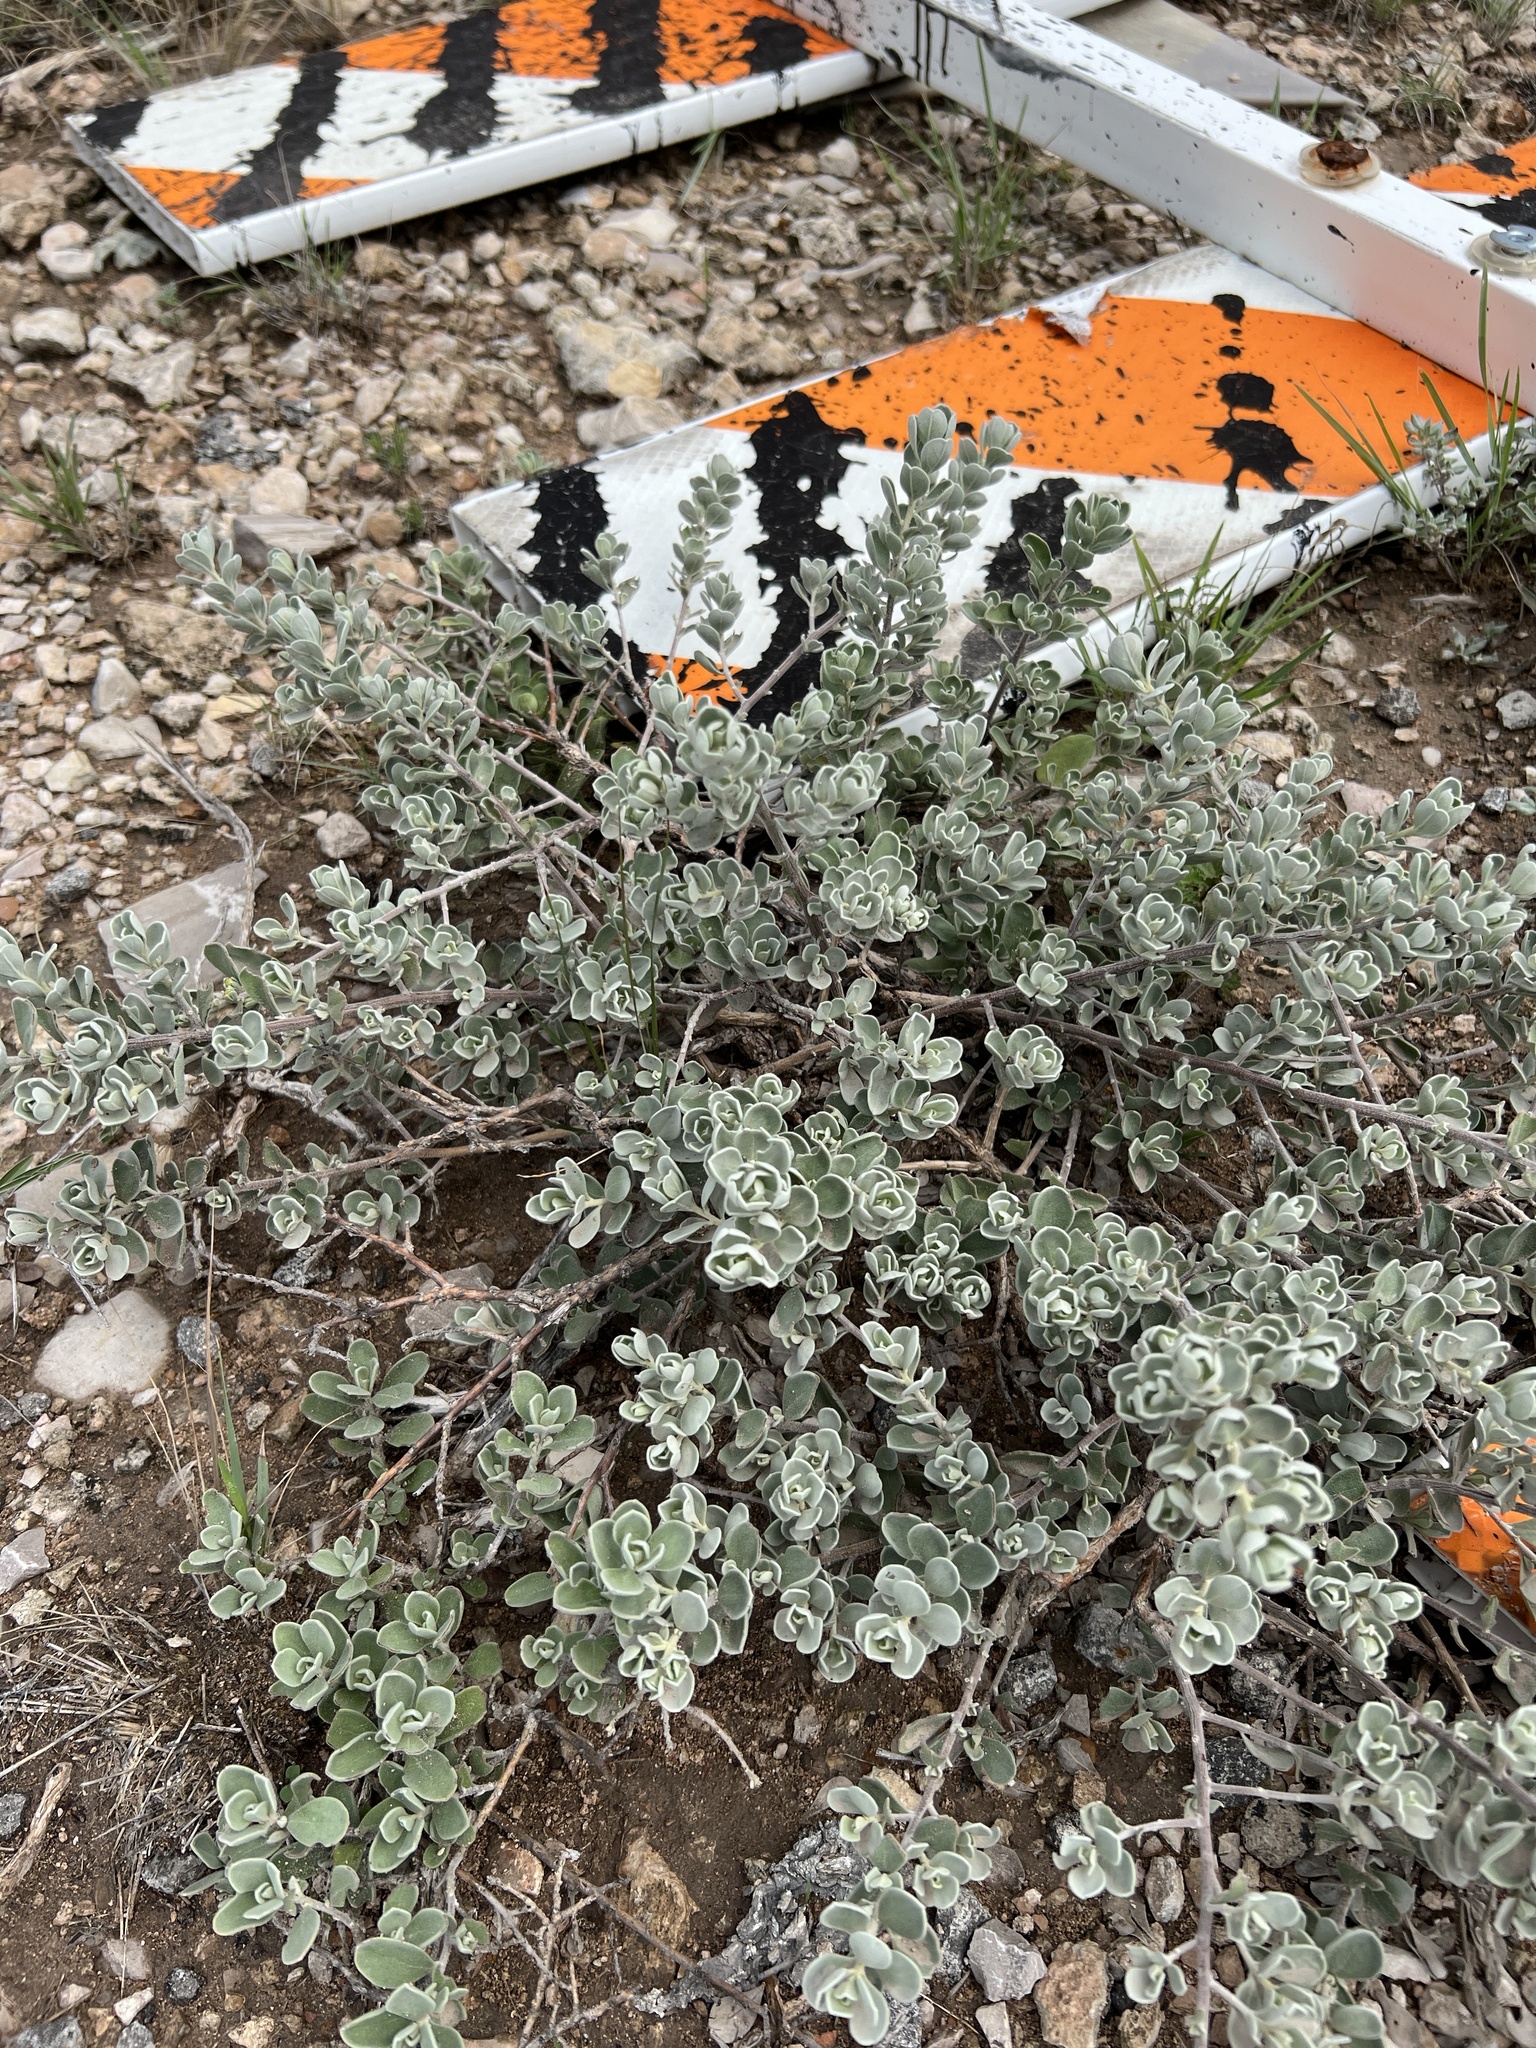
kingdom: Plantae
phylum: Tracheophyta
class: Magnoliopsida
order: Lamiales
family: Scrophulariaceae
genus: Leucophyllum
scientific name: Leucophyllum frutescens
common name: Texas silverleaf
